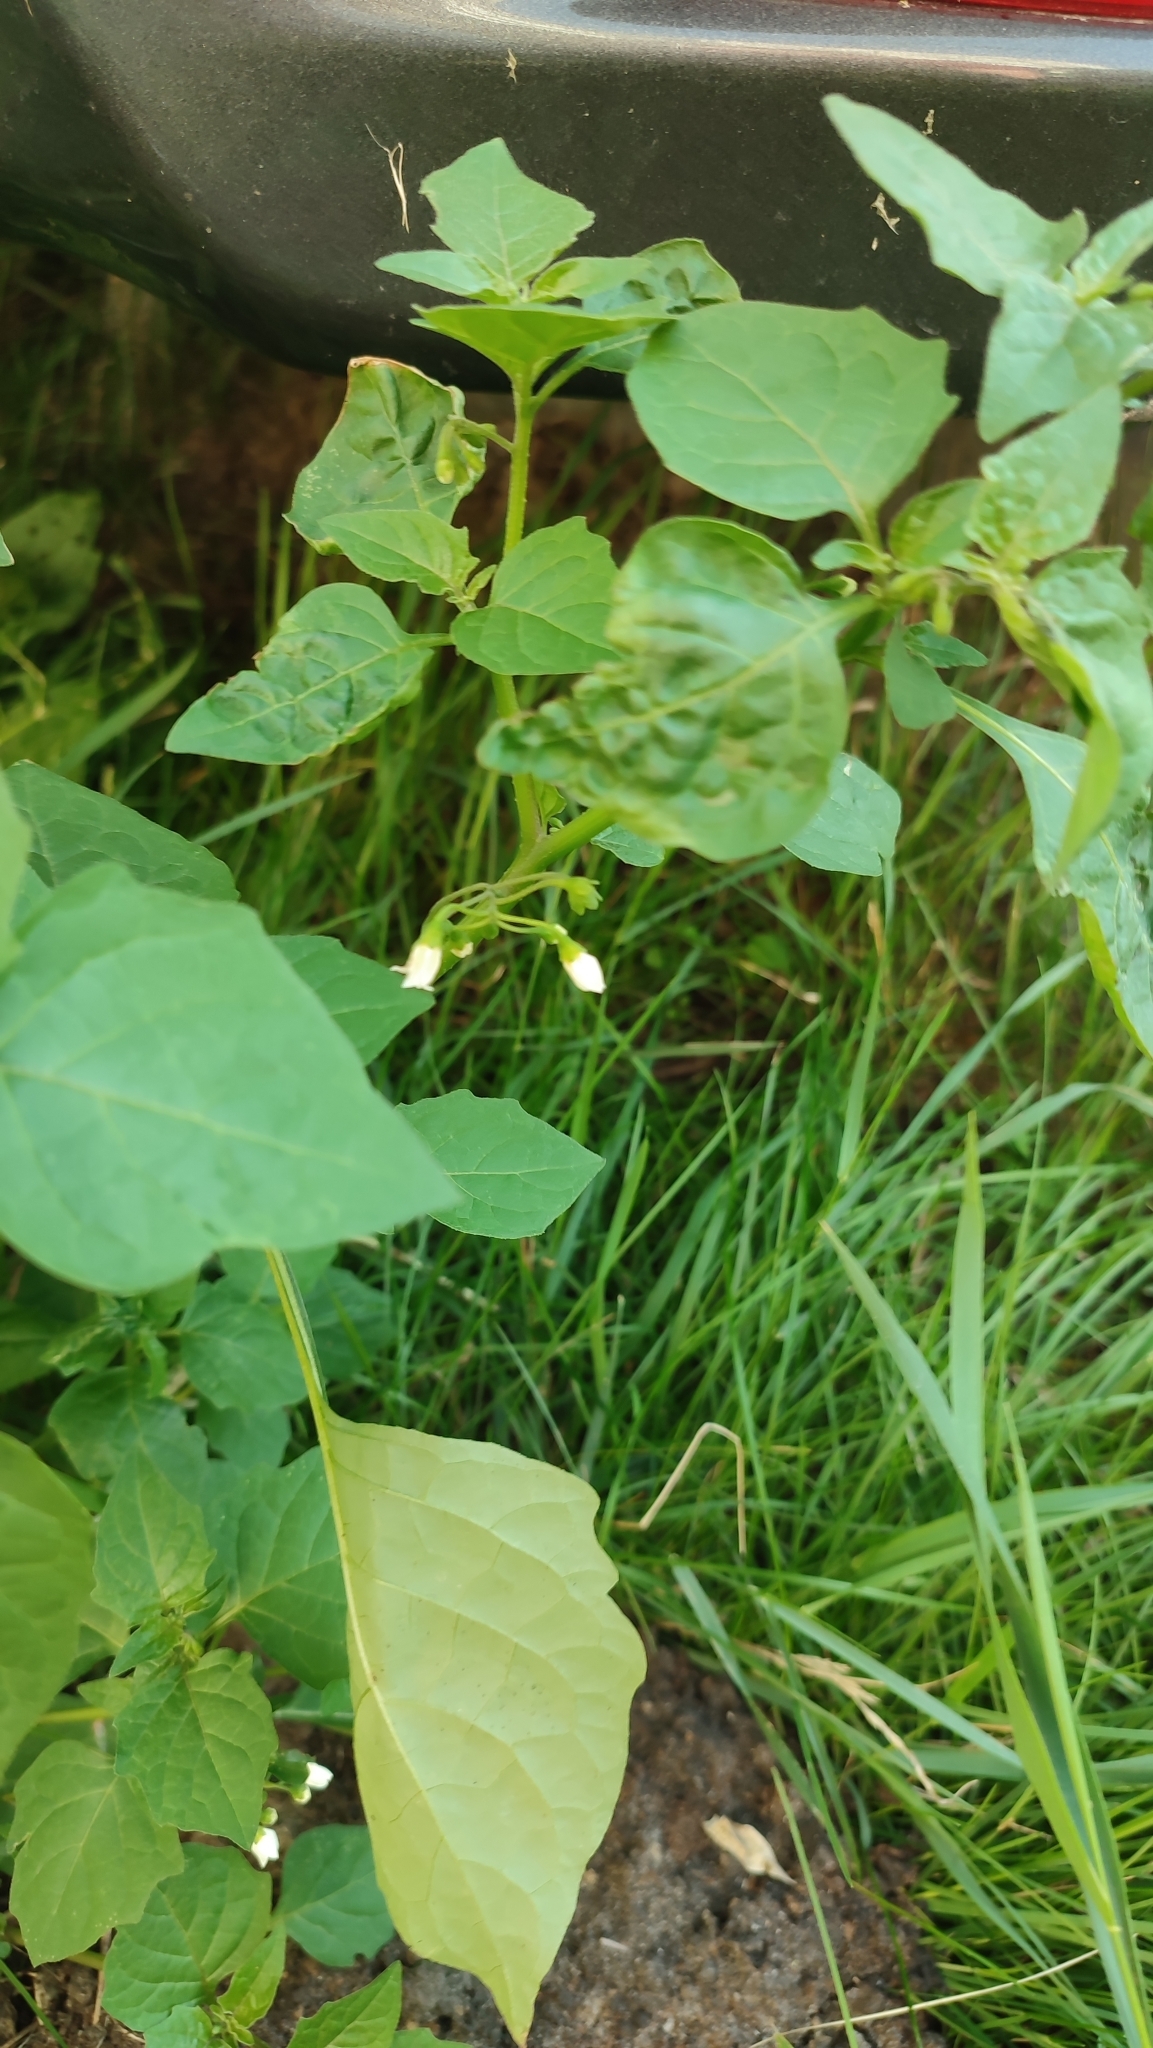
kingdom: Plantae
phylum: Tracheophyta
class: Magnoliopsida
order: Solanales
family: Solanaceae
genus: Solanum
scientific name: Solanum nigrum
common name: Black nightshade
